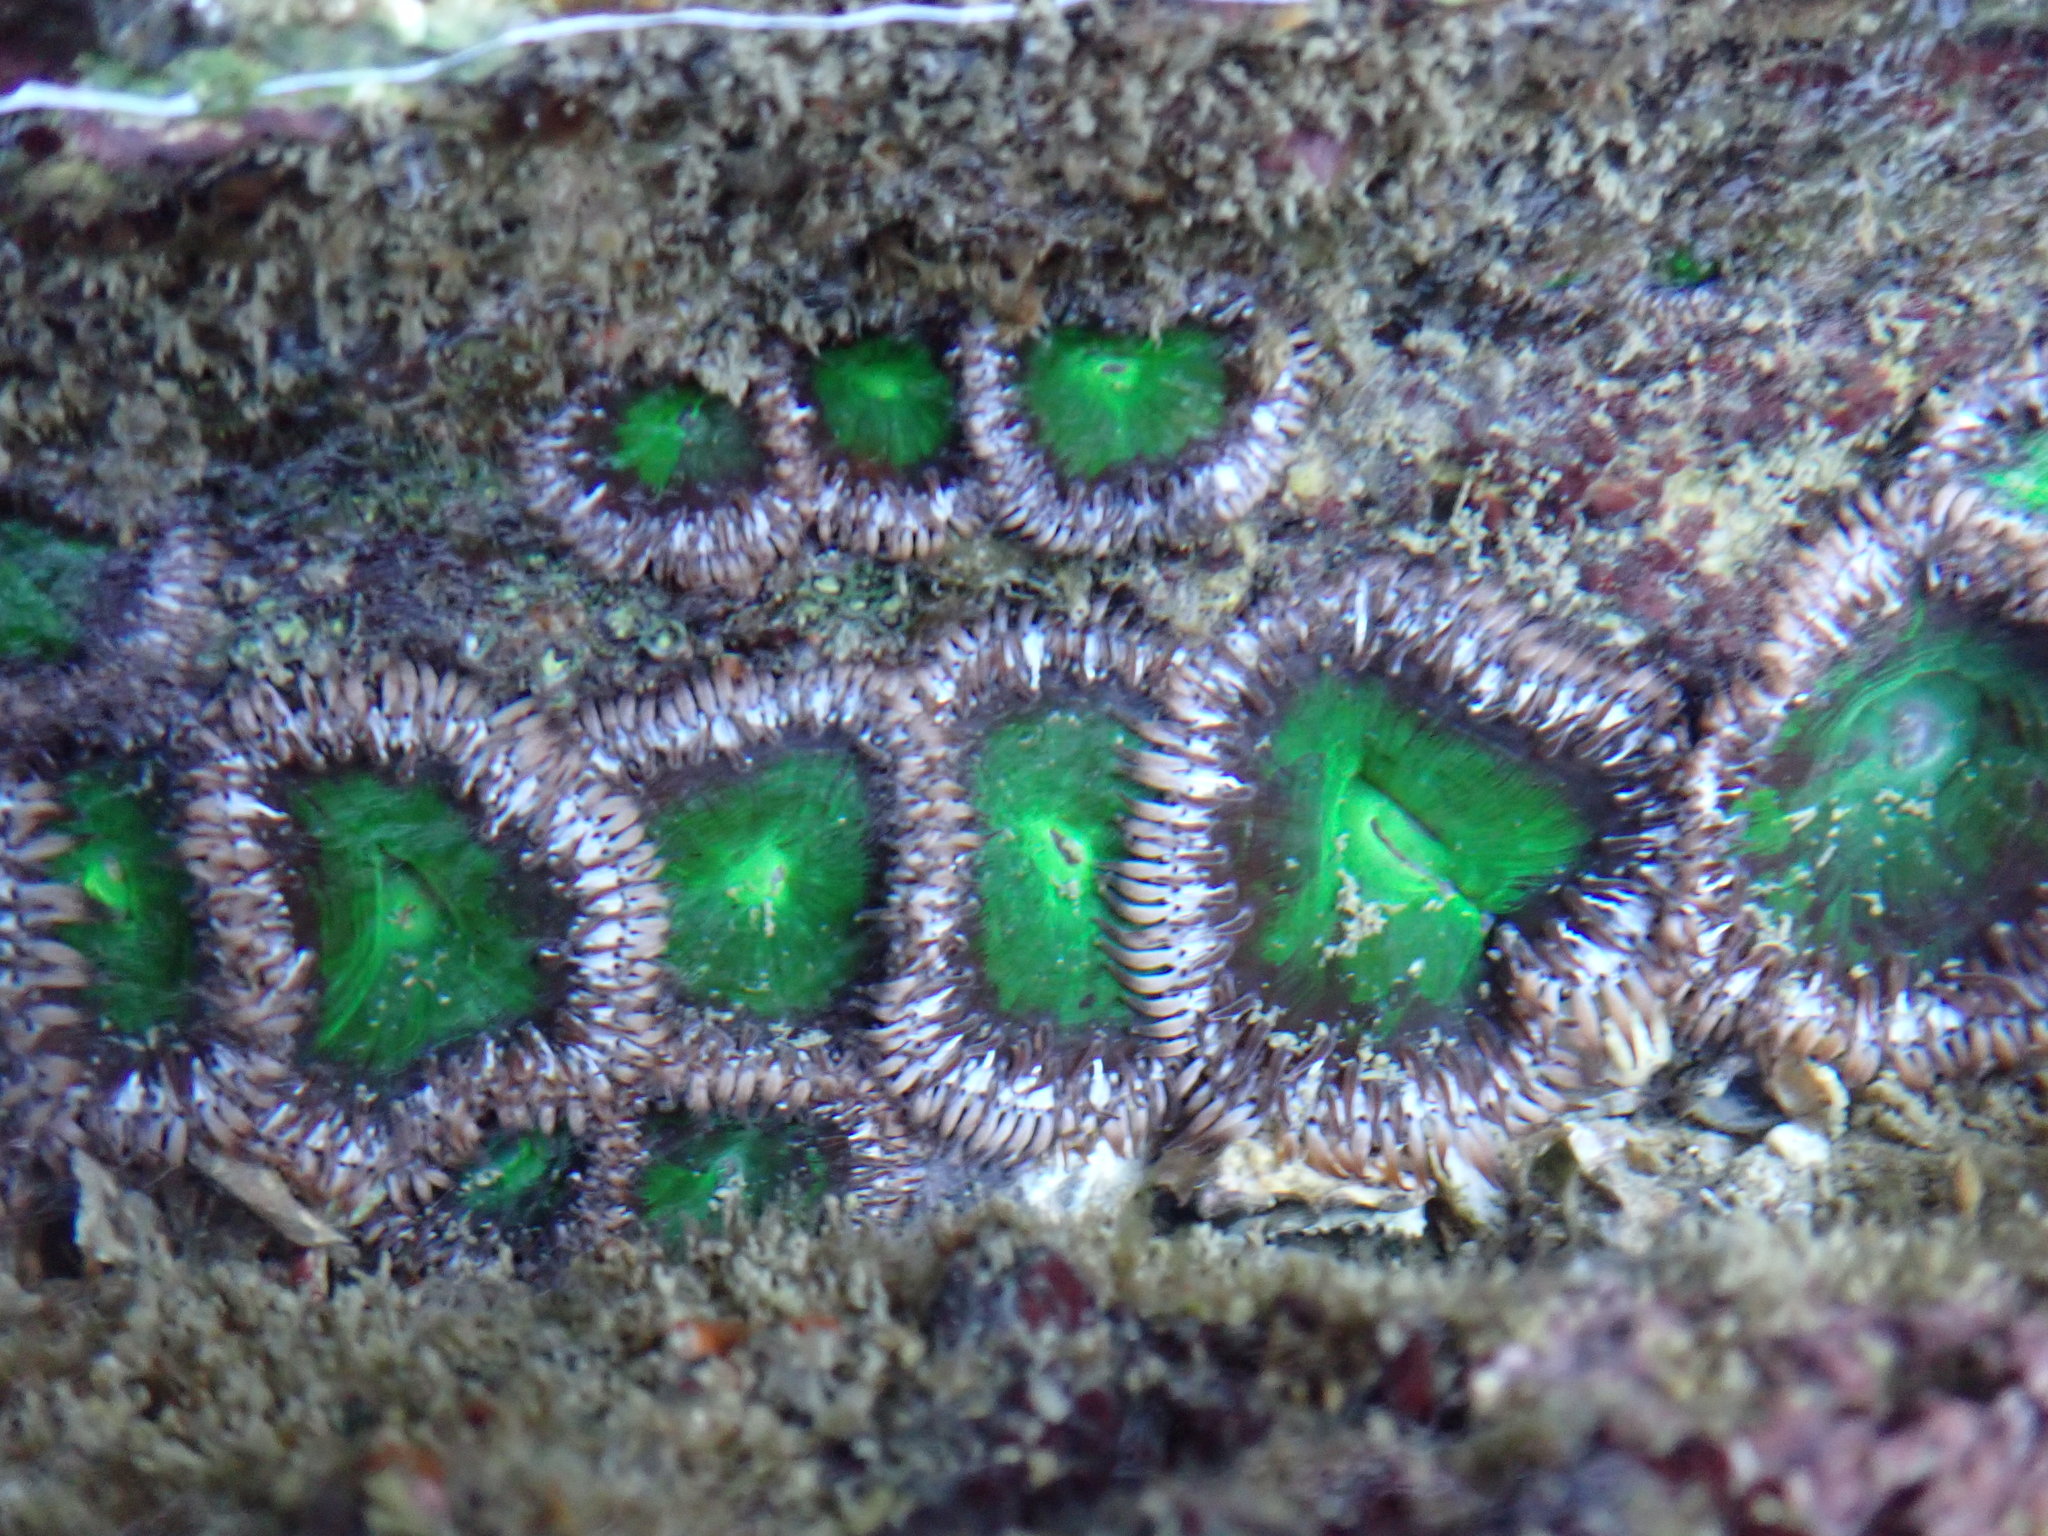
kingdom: Animalia
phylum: Cnidaria
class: Anthozoa
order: Actiniaria
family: Actiniidae
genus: Gyractis
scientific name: Gyractis sesere
